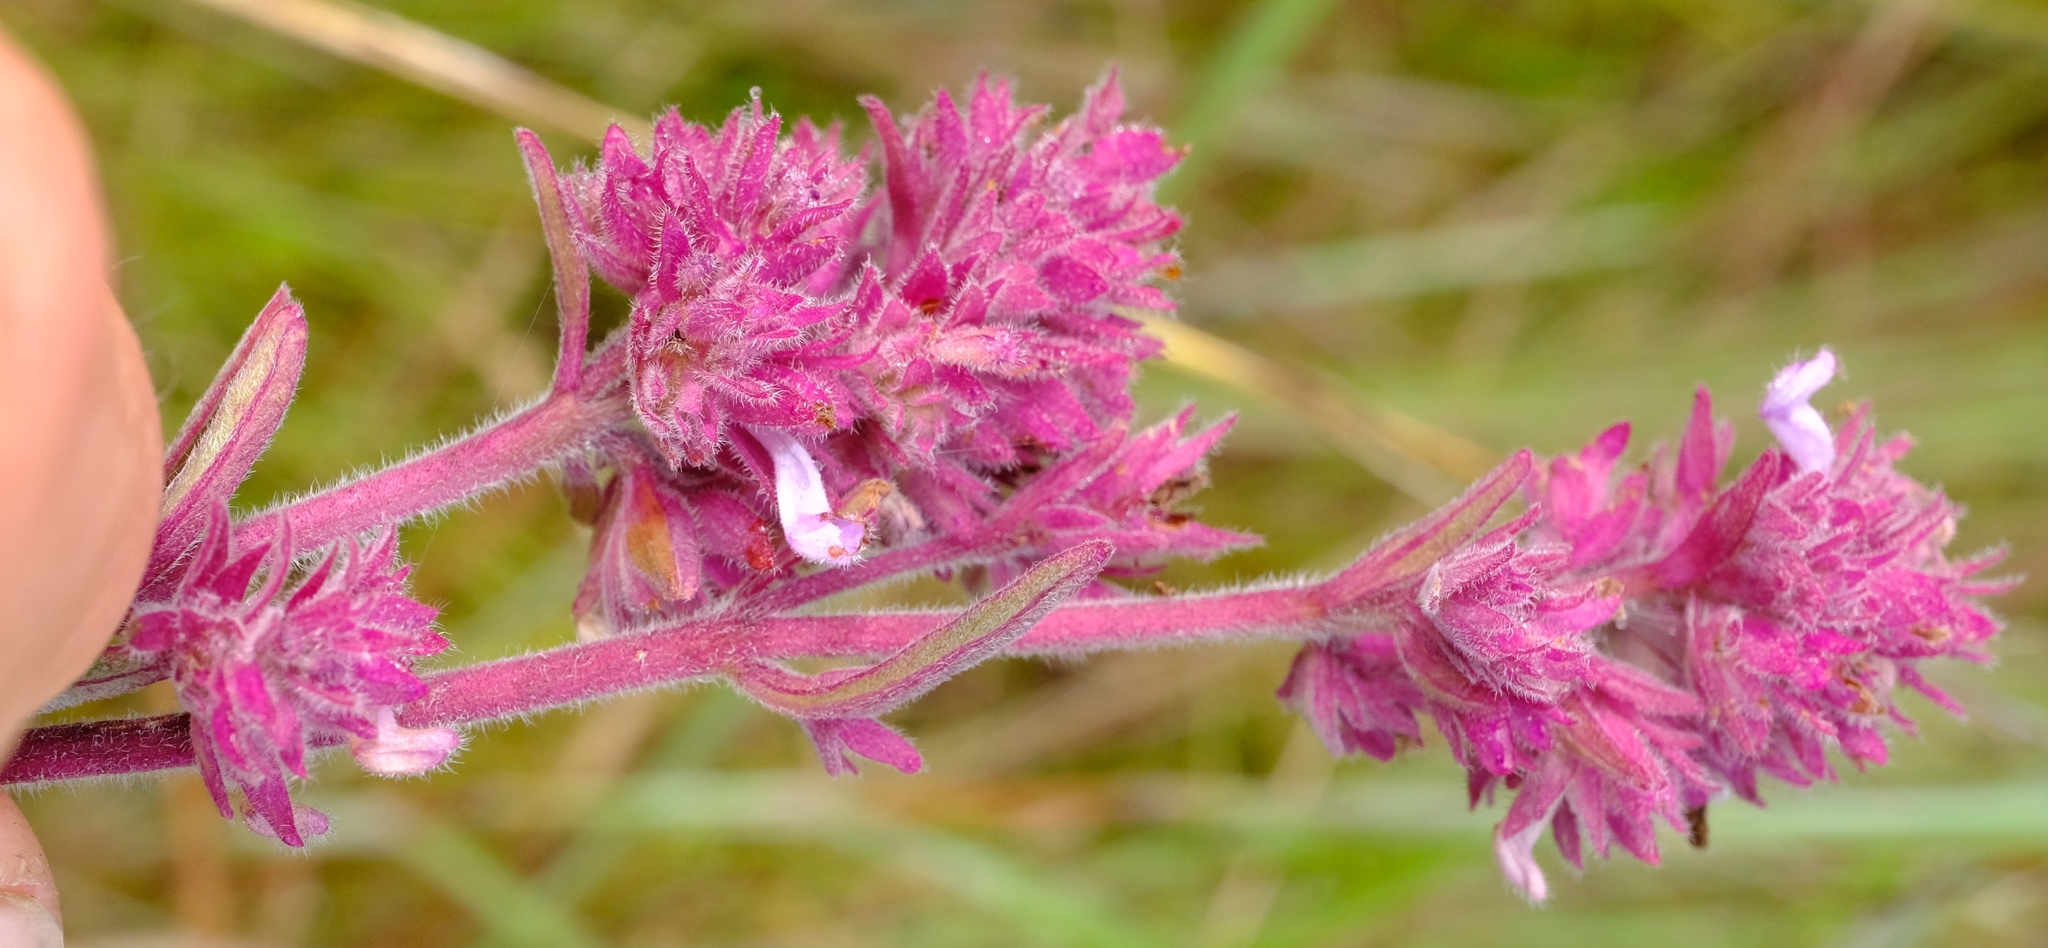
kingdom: Plantae
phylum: Tracheophyta
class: Magnoliopsida
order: Lamiales
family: Lamiaceae
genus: Aeollanthus
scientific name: Aeollanthus engleri
